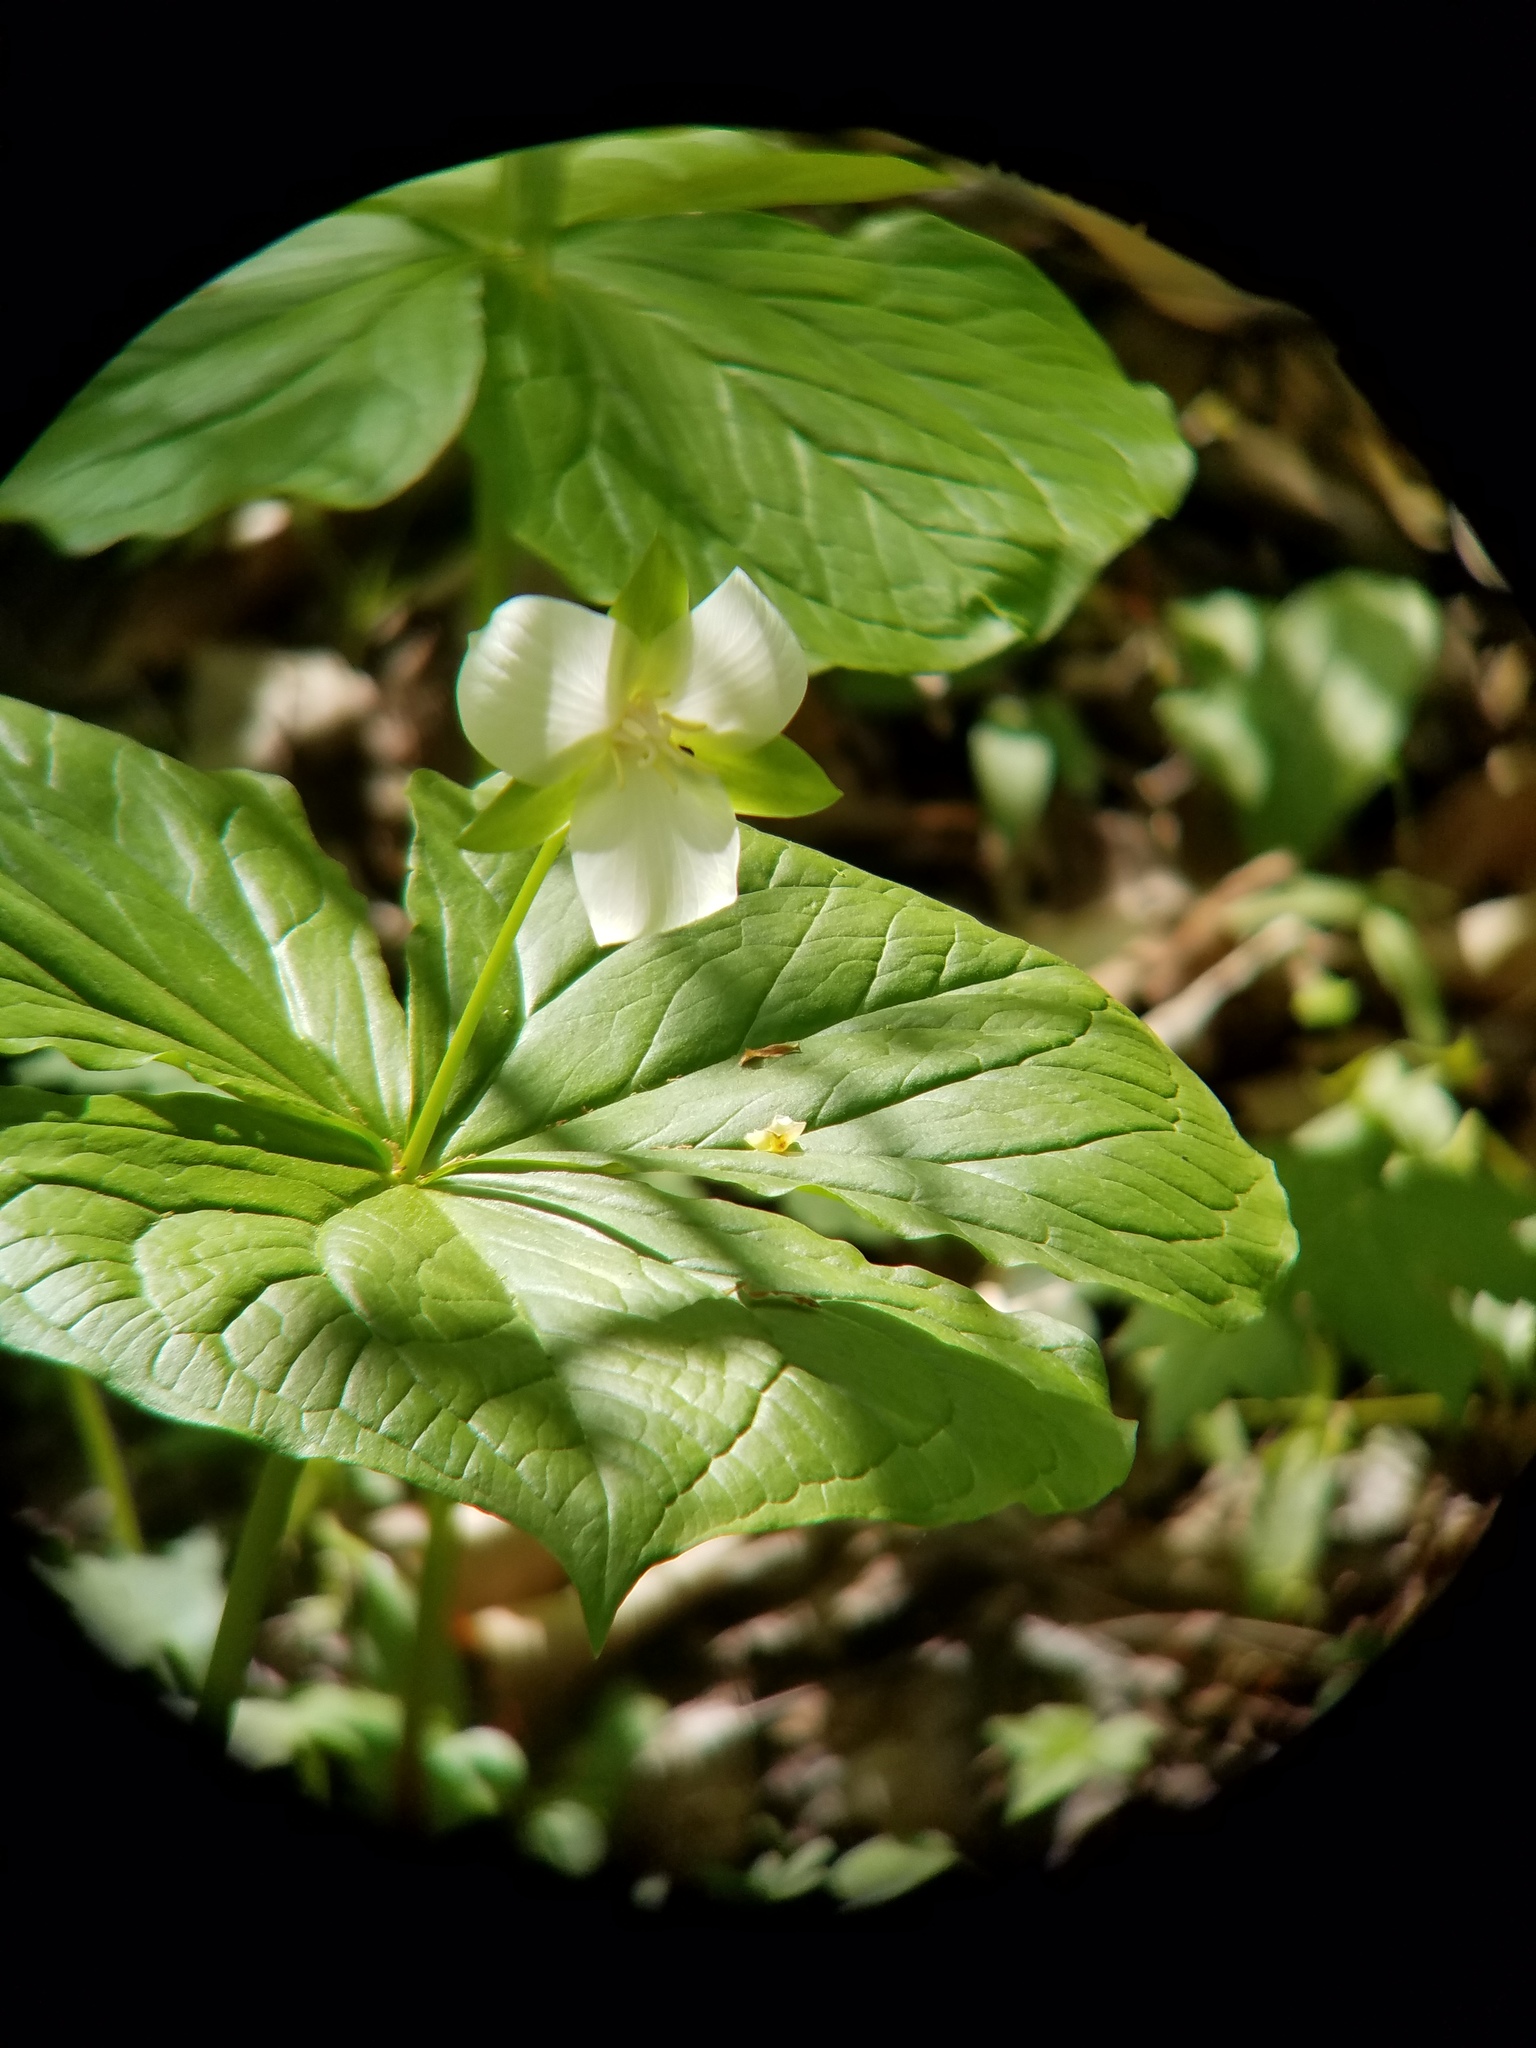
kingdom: Plantae
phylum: Tracheophyta
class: Liliopsida
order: Liliales
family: Melanthiaceae
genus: Trillium
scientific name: Trillium flexipes
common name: Drooping trillium
